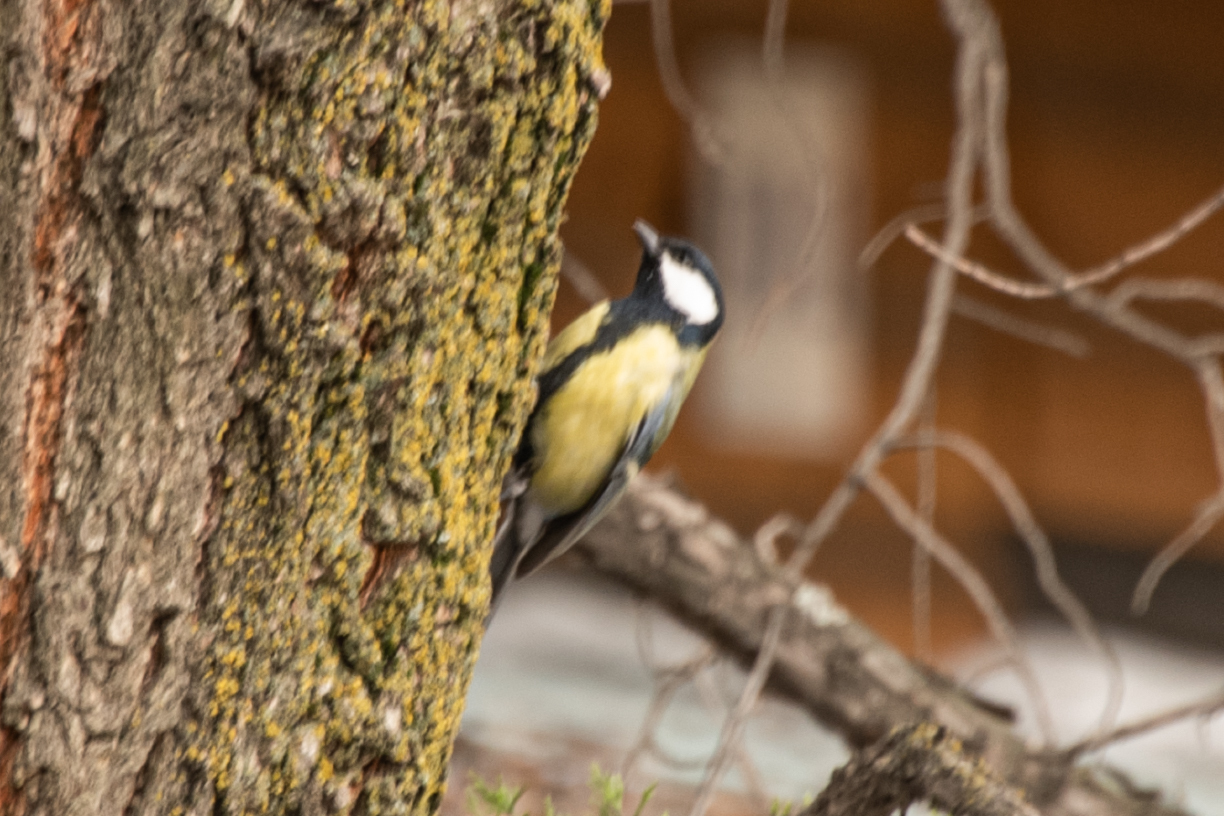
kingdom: Animalia
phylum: Chordata
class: Aves
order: Passeriformes
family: Paridae
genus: Parus
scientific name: Parus major
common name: Great tit
